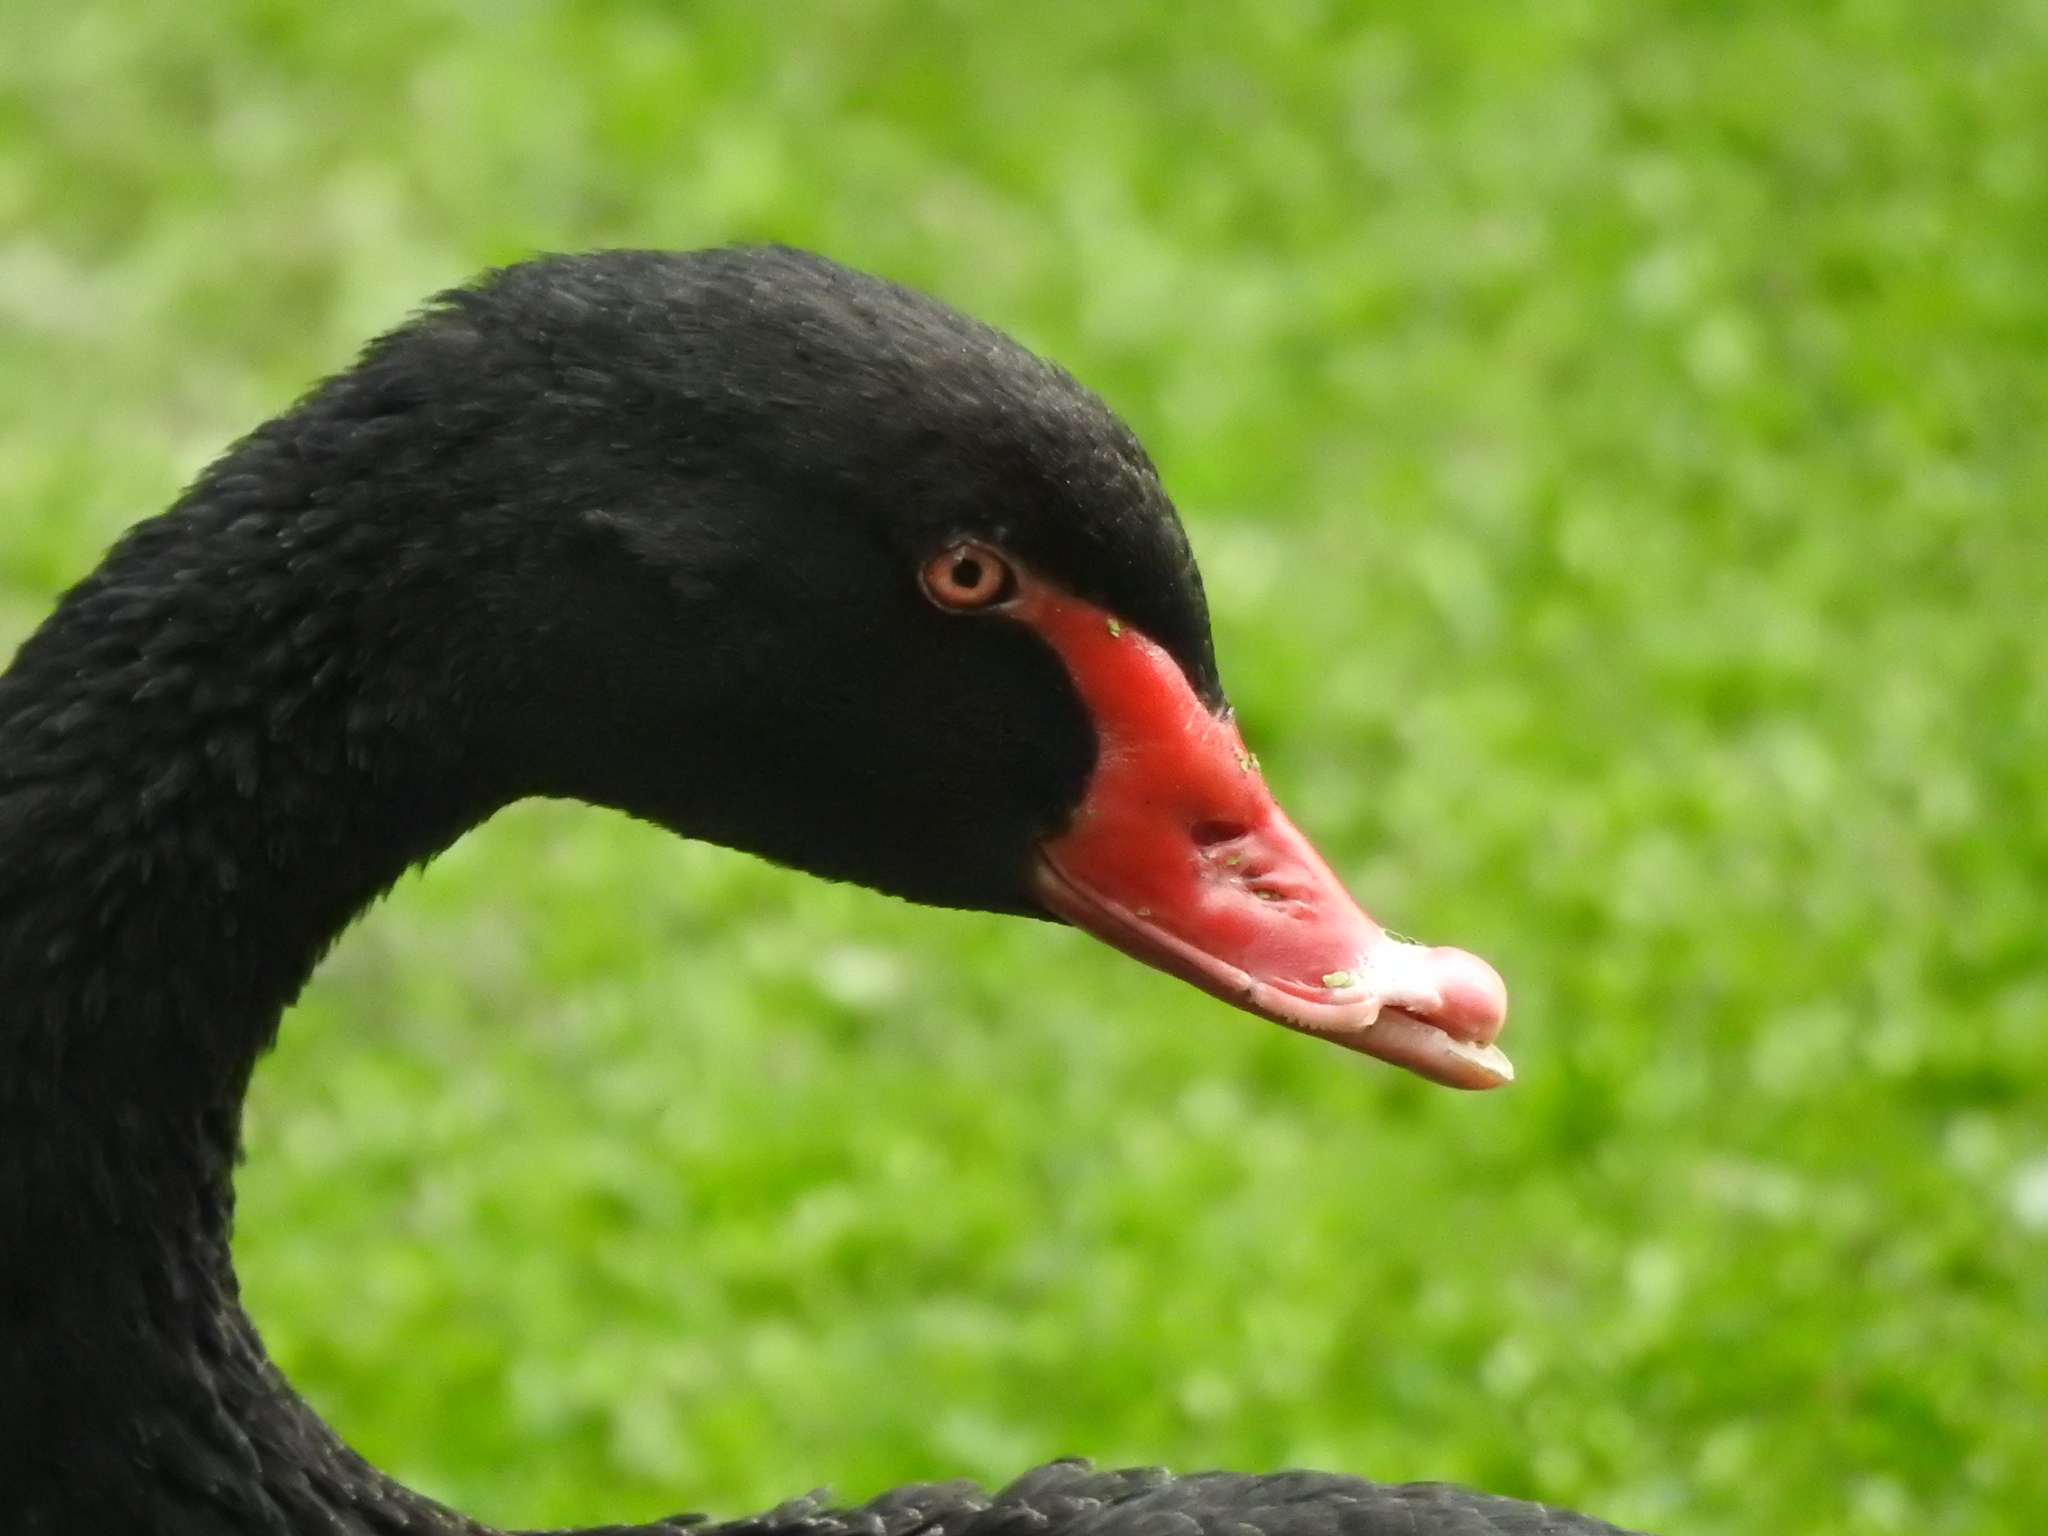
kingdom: Animalia
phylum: Chordata
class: Aves
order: Anseriformes
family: Anatidae
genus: Cygnus
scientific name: Cygnus atratus
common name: Black swan
